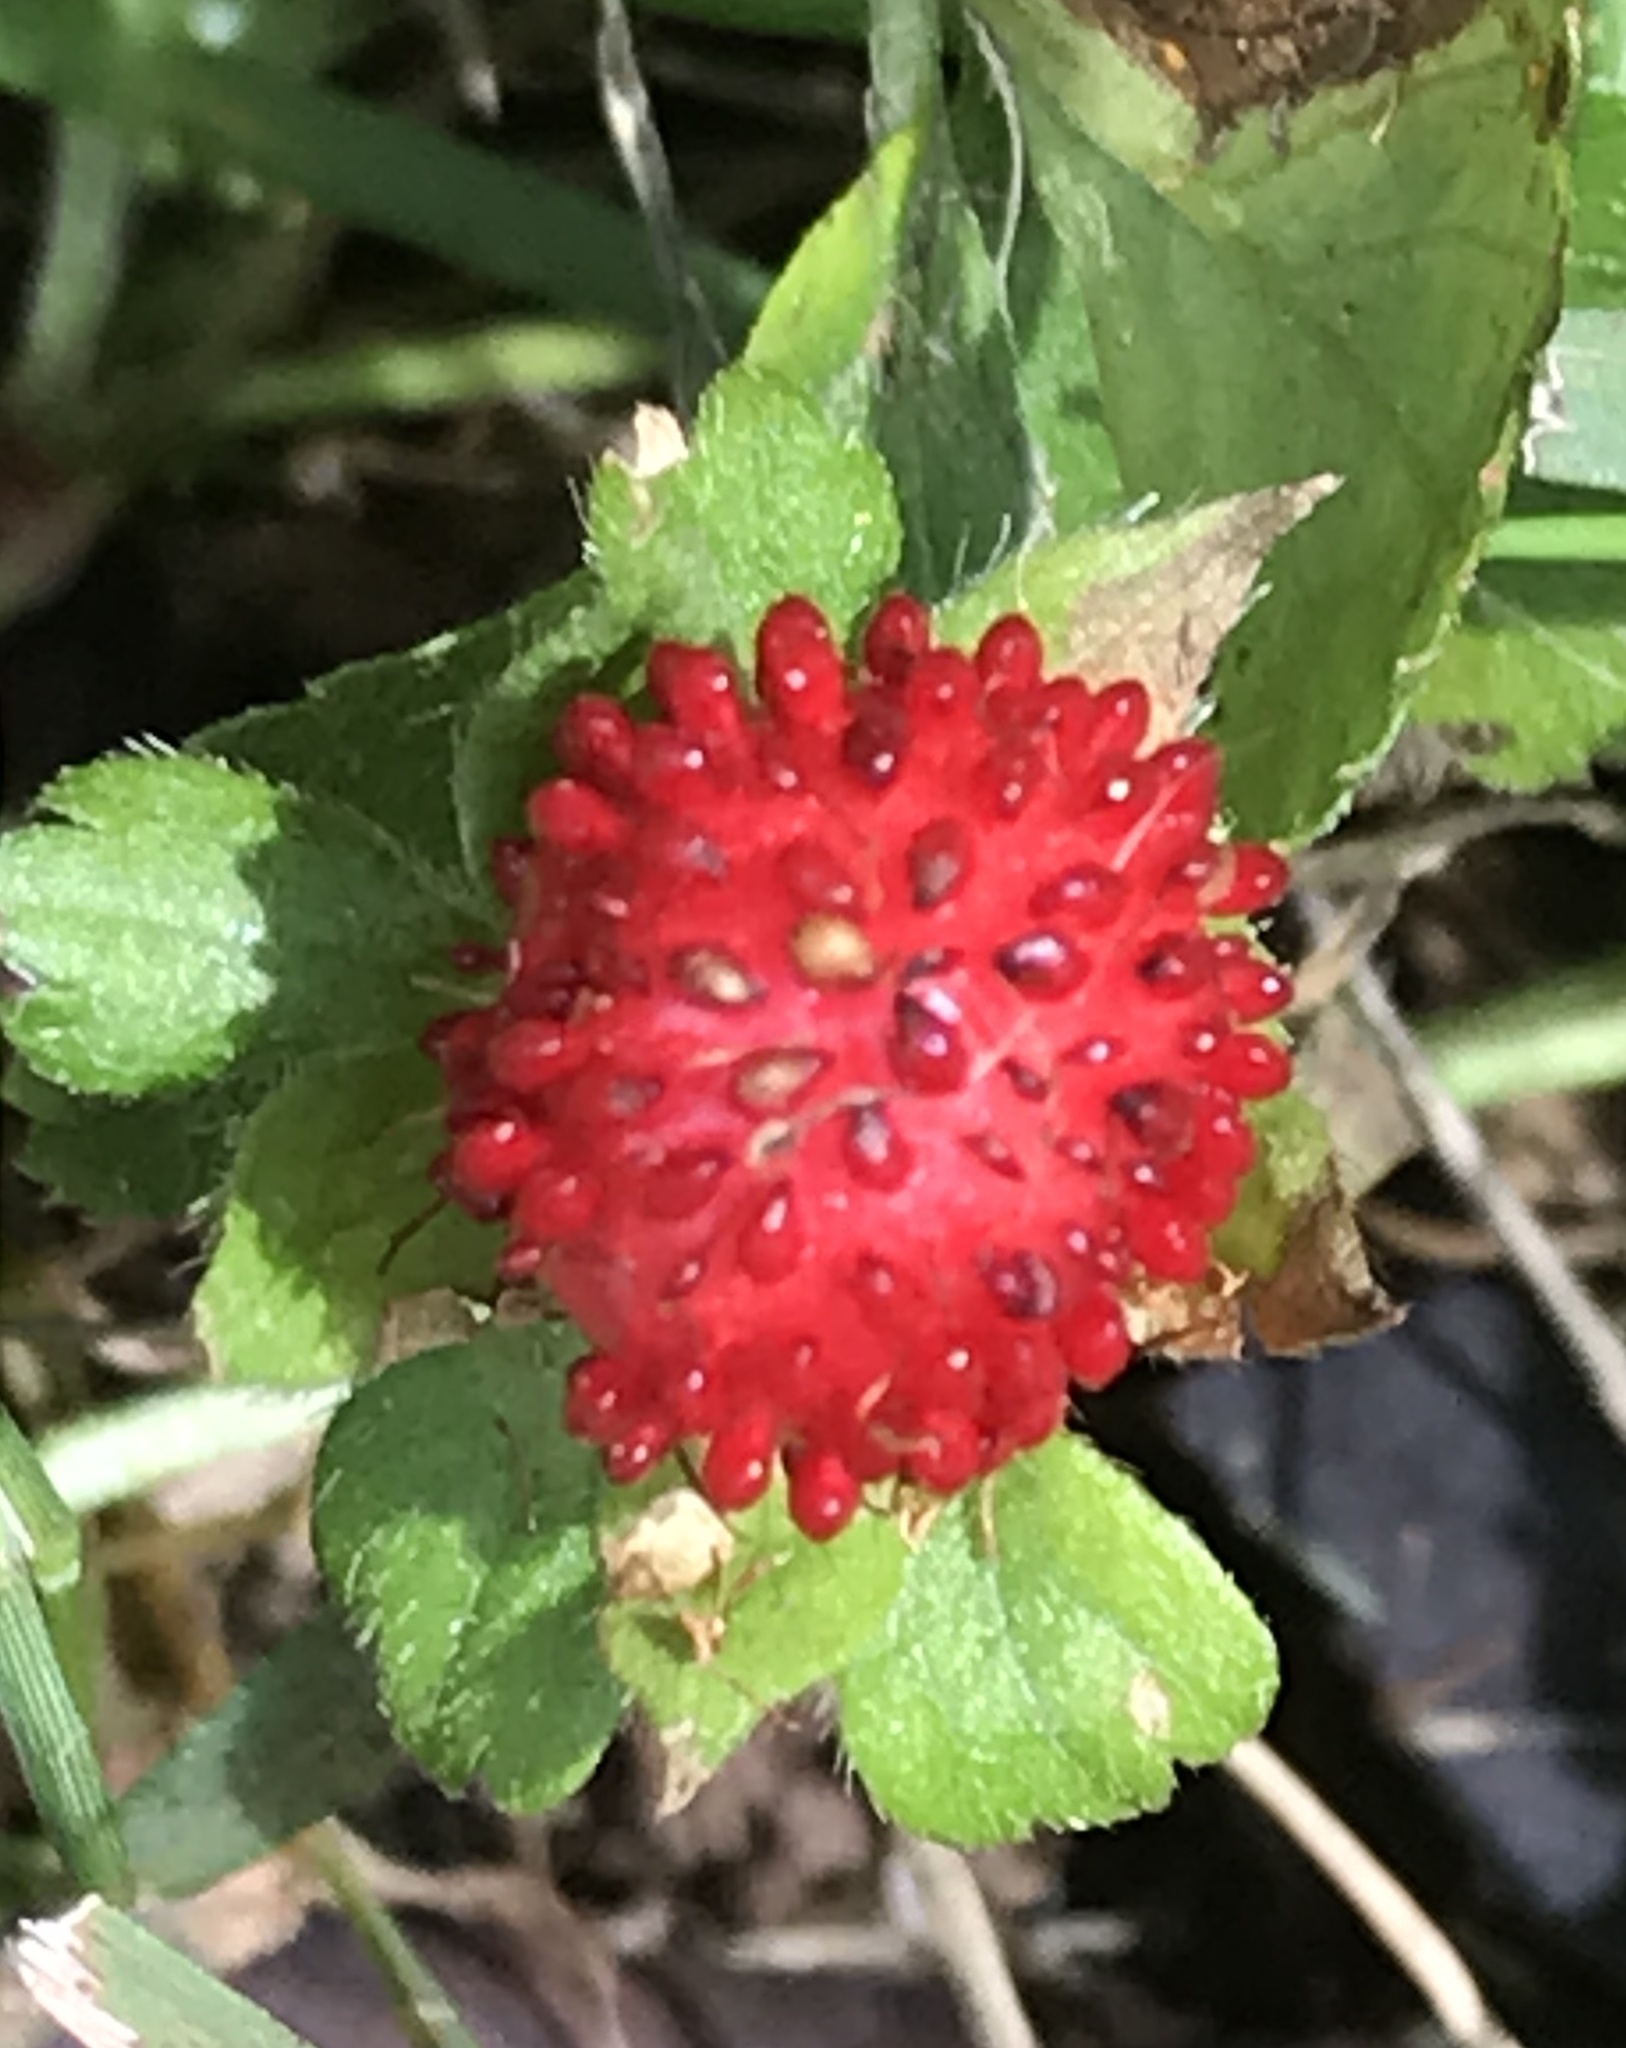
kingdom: Plantae
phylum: Tracheophyta
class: Magnoliopsida
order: Rosales
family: Rosaceae
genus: Potentilla
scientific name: Potentilla indica
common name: Yellow-flowered strawberry
